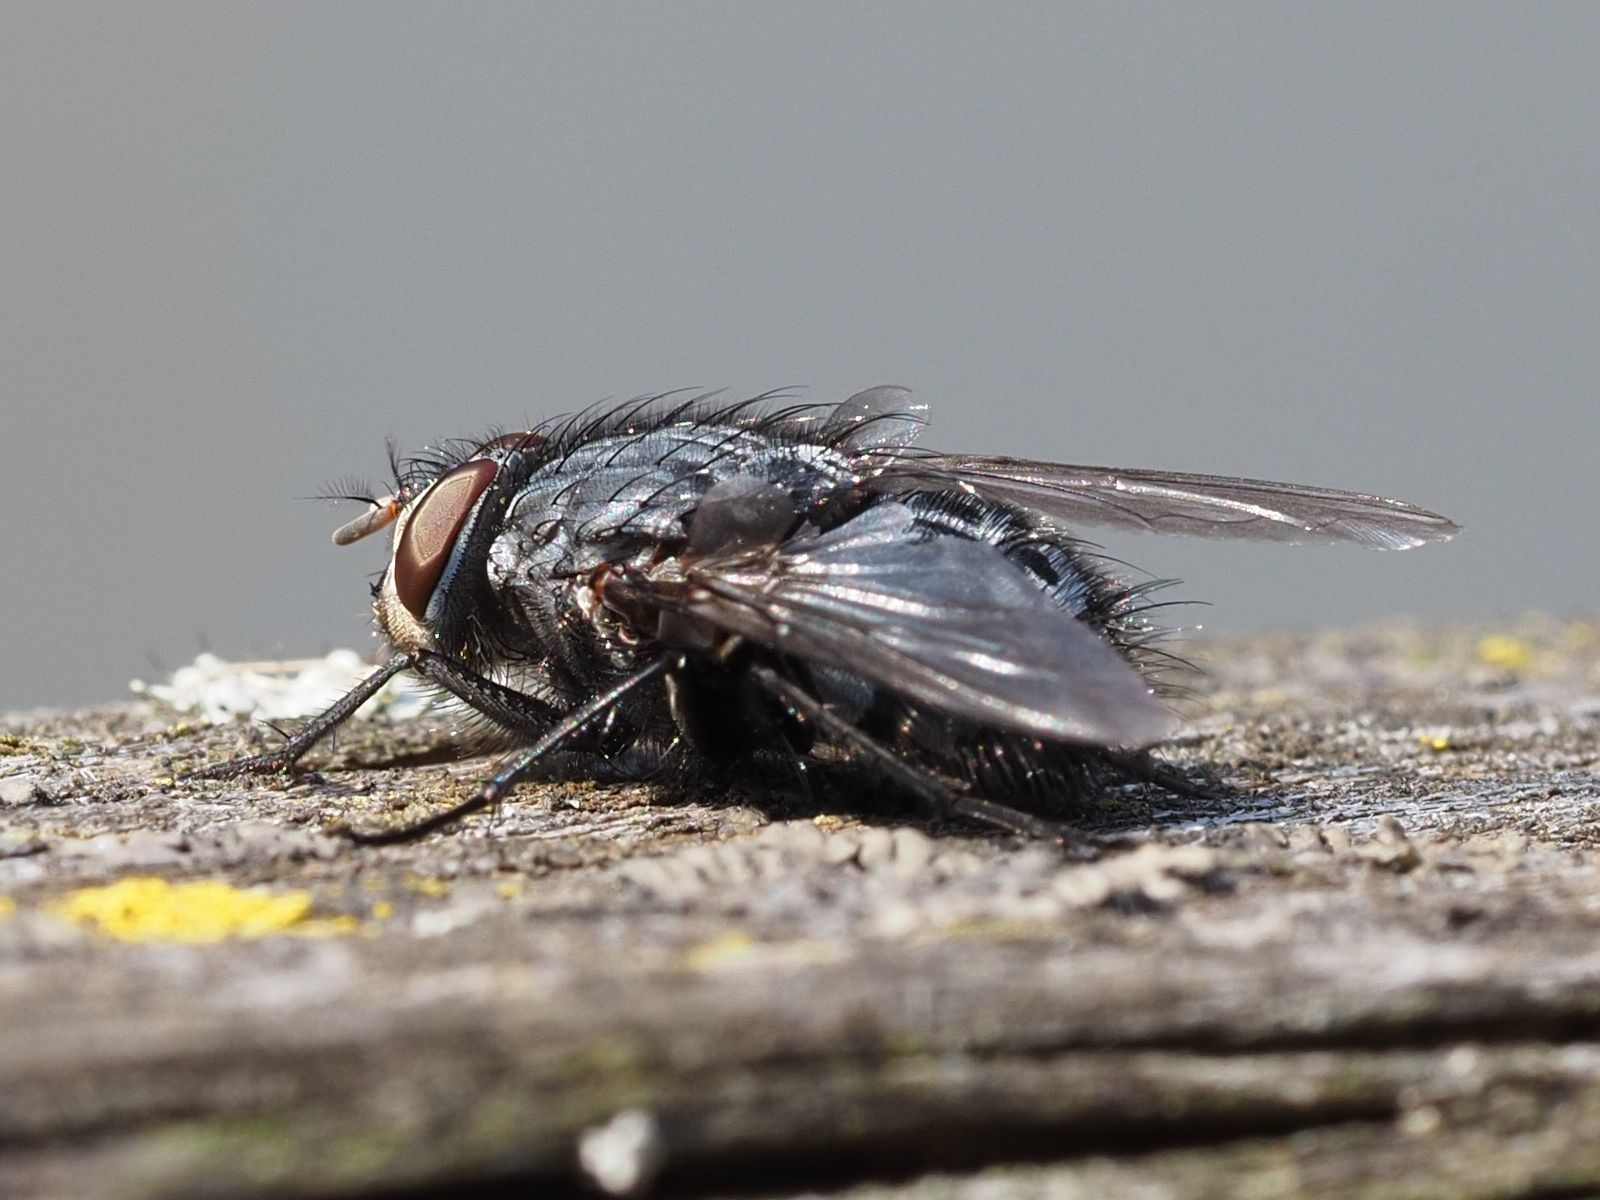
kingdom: Animalia
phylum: Arthropoda
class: Insecta
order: Diptera
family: Calliphoridae
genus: Calliphora
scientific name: Calliphora vicina
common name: Common blow flie
